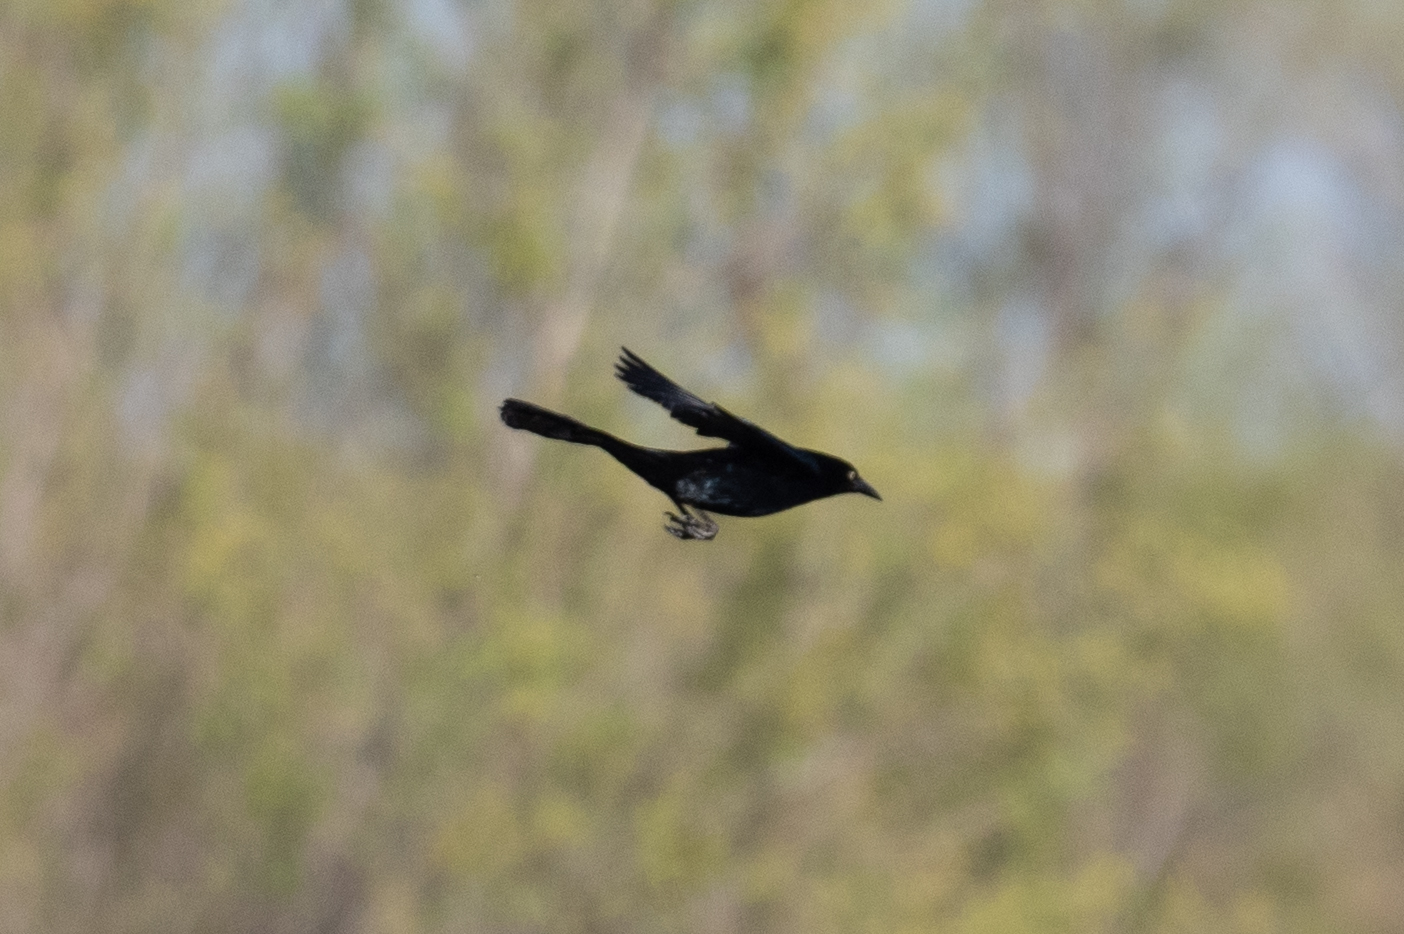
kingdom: Animalia
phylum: Chordata
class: Aves
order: Passeriformes
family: Icteridae
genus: Quiscalus
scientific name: Quiscalus mexicanus
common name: Great-tailed grackle
